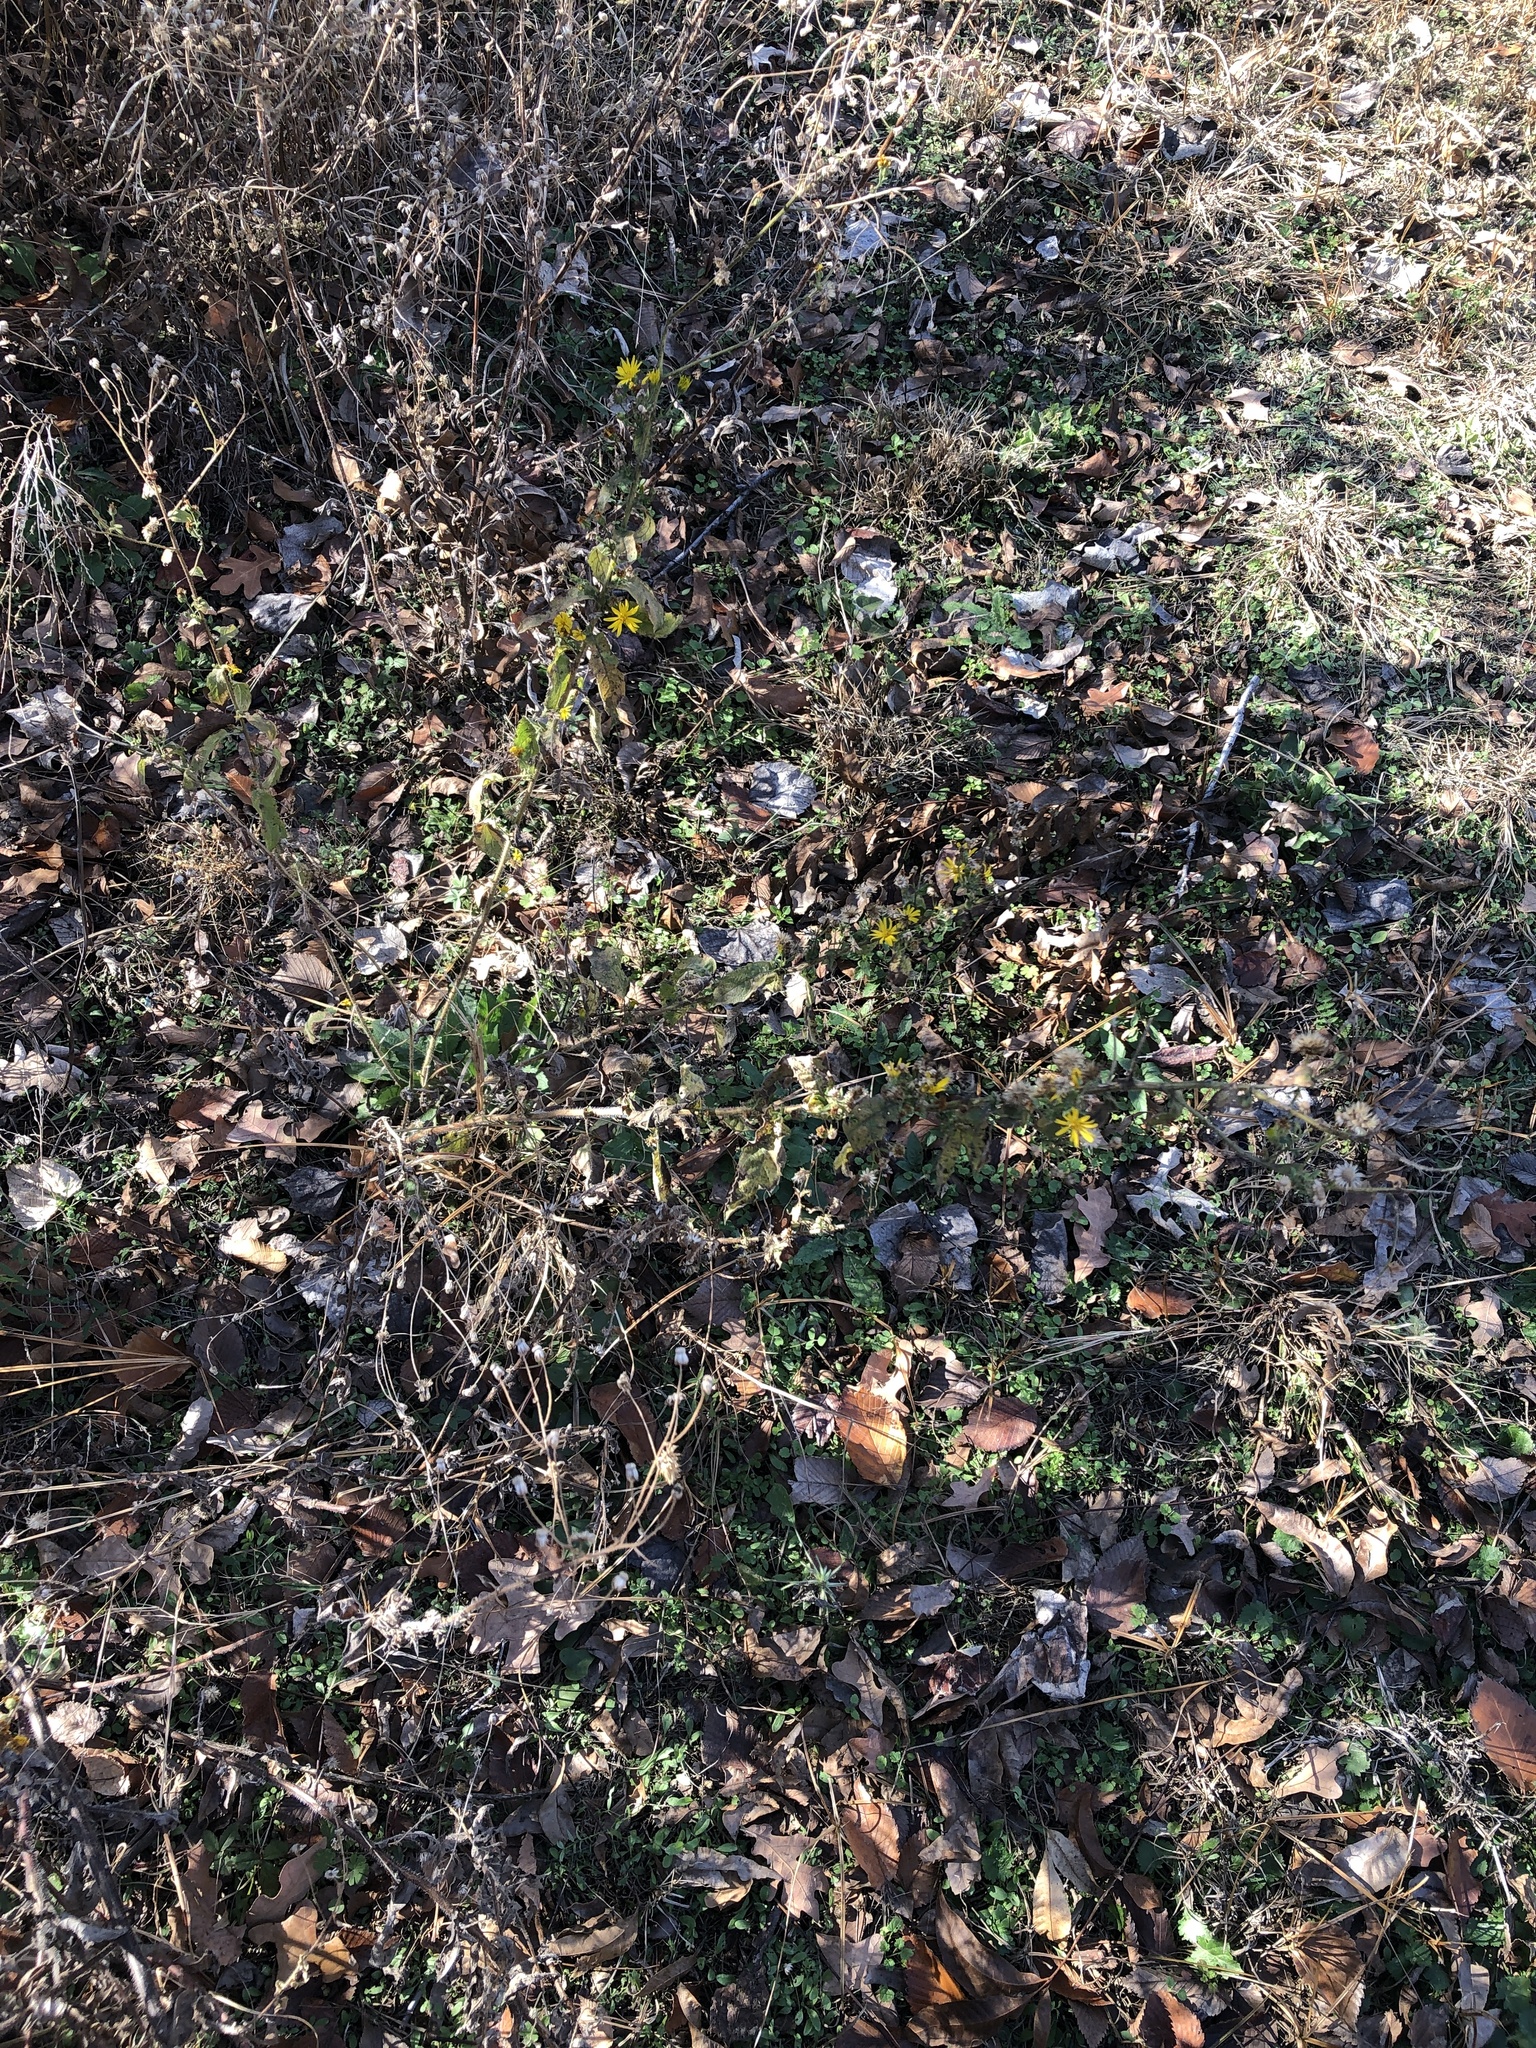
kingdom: Plantae
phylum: Tracheophyta
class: Magnoliopsida
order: Asterales
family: Asteraceae
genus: Heterotheca
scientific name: Heterotheca subaxillaris
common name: Camphorweed
